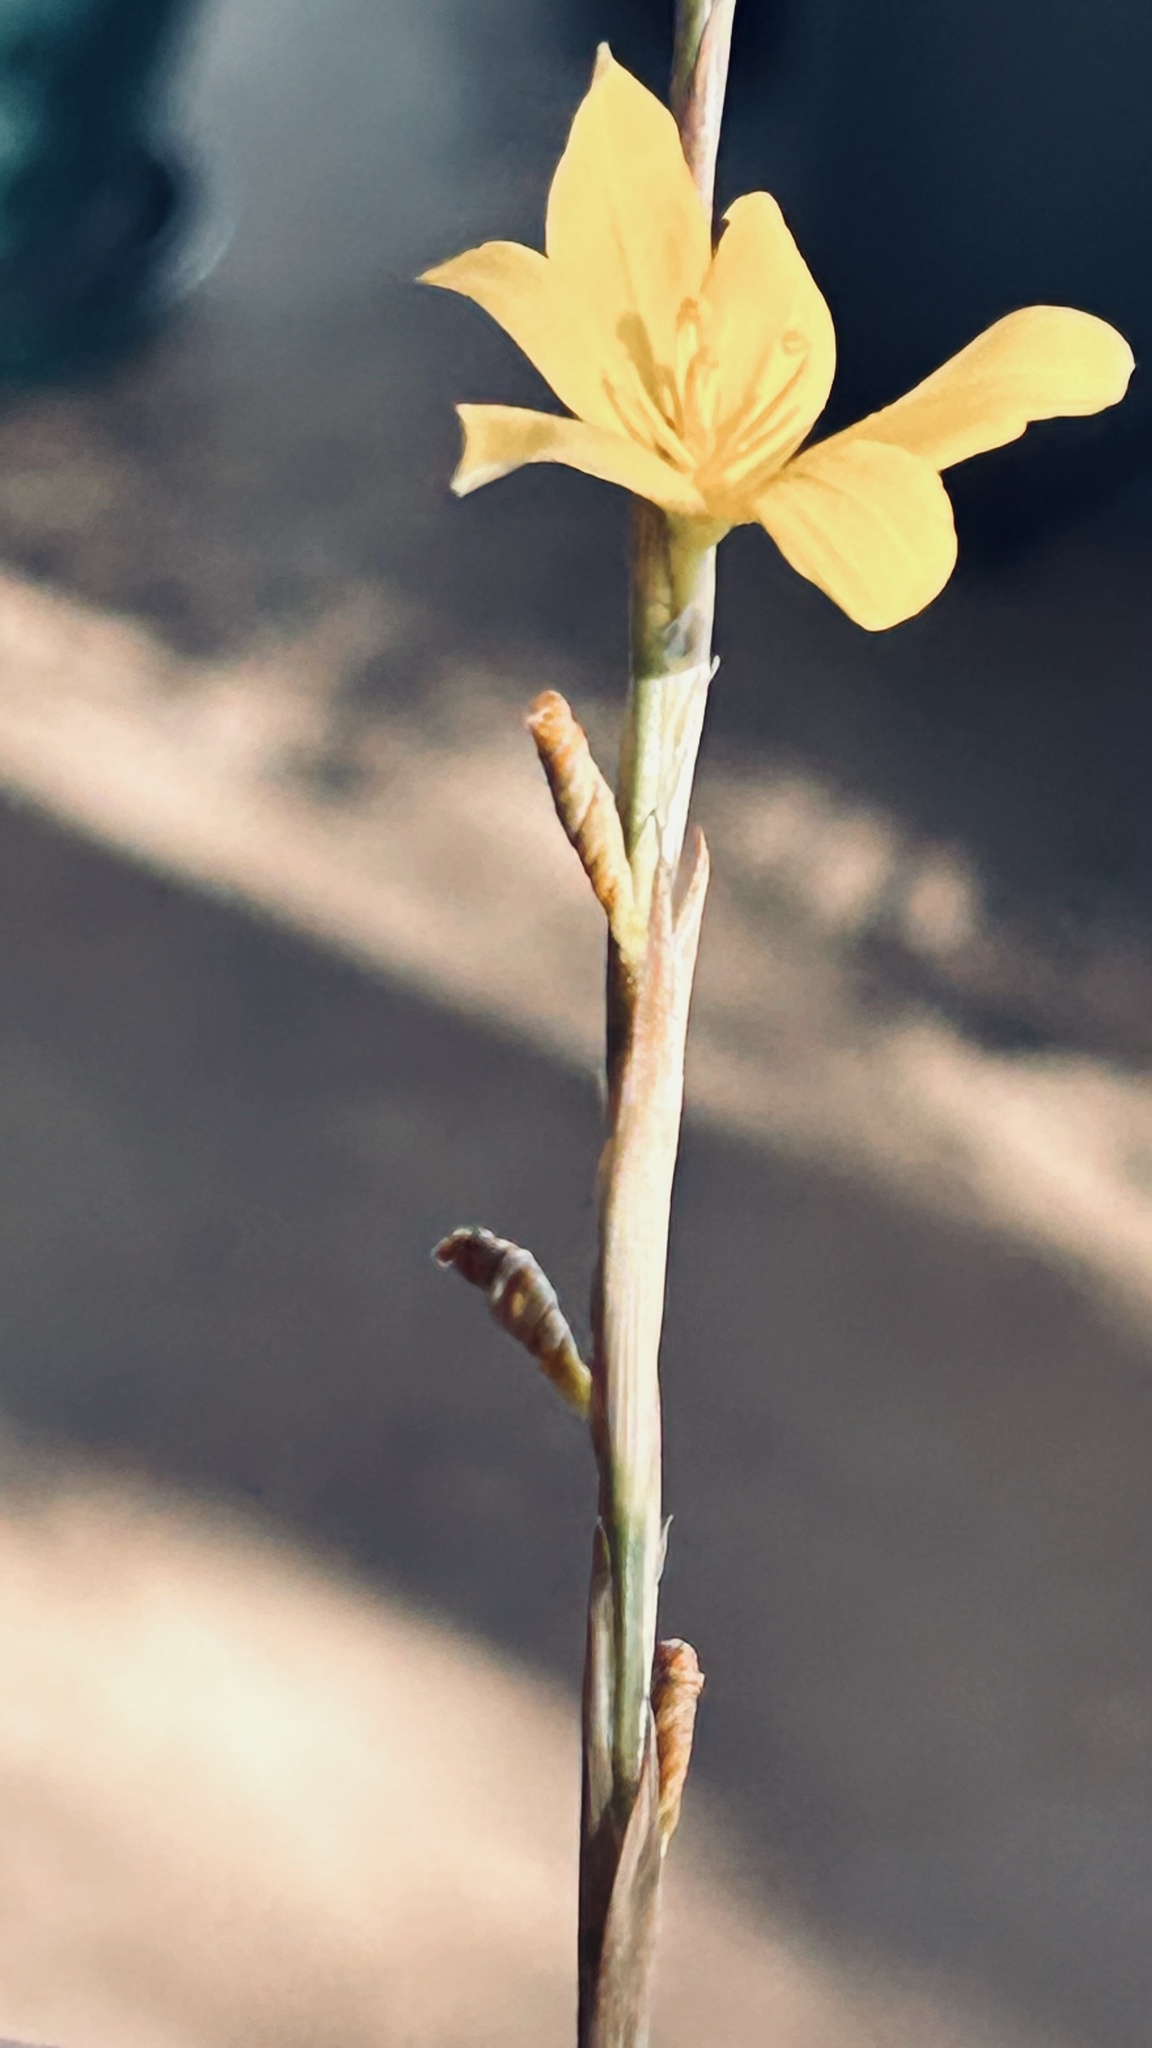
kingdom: Plantae
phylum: Tracheophyta
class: Liliopsida
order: Asparagales
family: Iridaceae
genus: Moraea
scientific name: Moraea virgata
